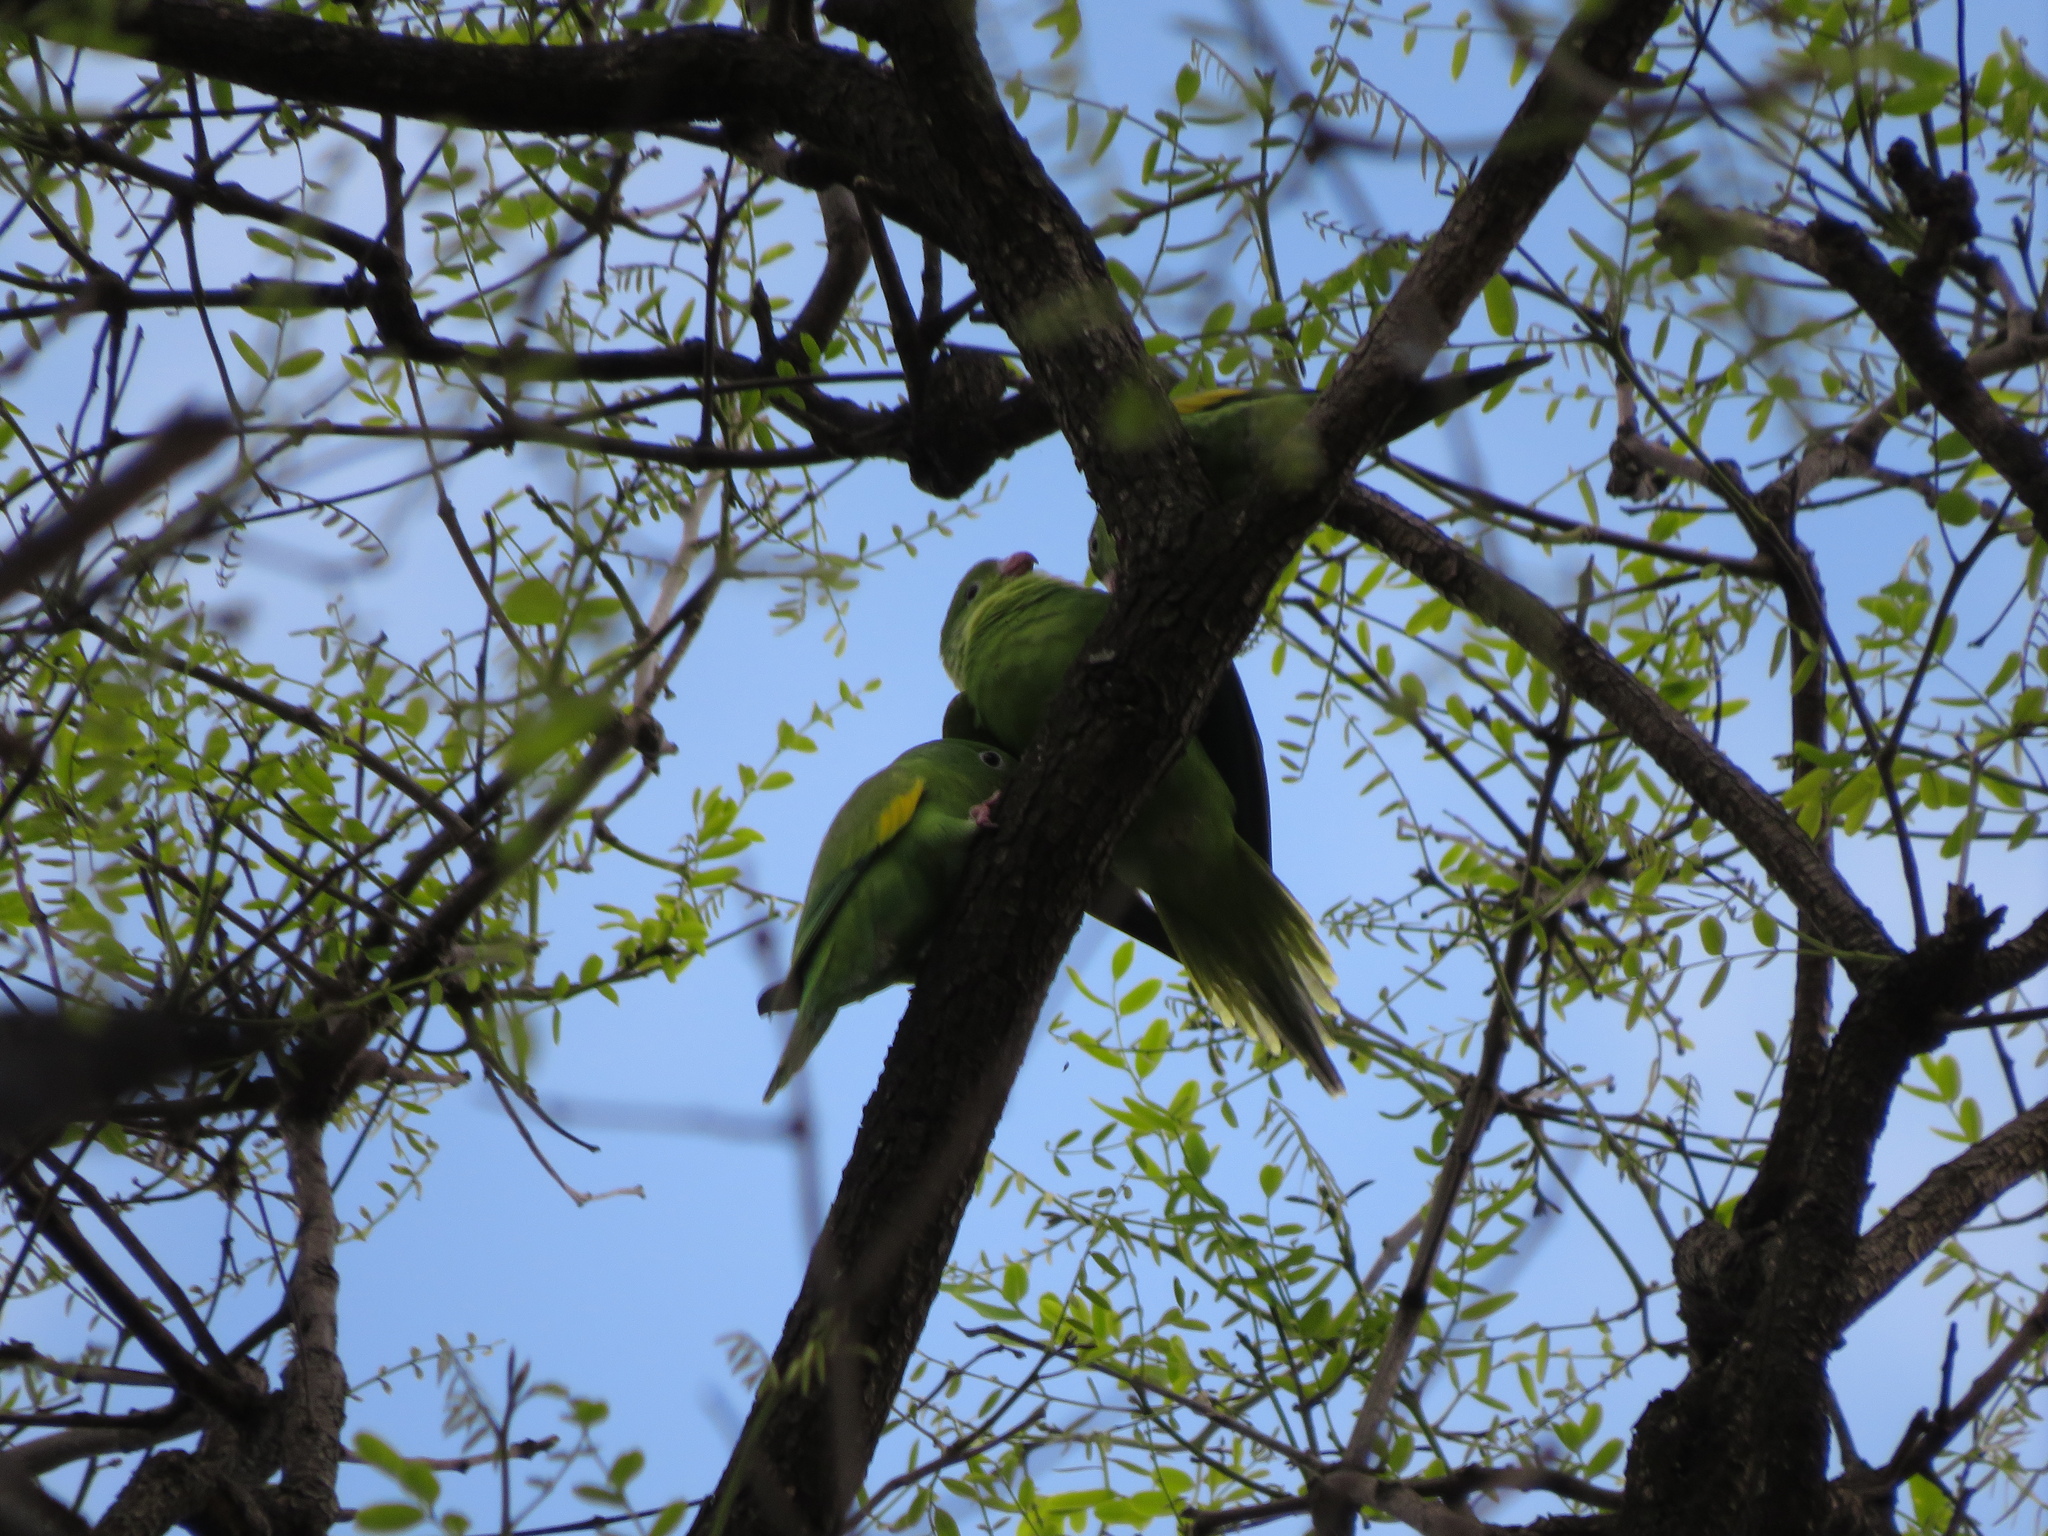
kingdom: Animalia
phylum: Chordata
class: Aves
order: Psittaciformes
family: Psittacidae
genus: Brotogeris
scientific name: Brotogeris chiriri
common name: Yellow-chevroned parakeet
